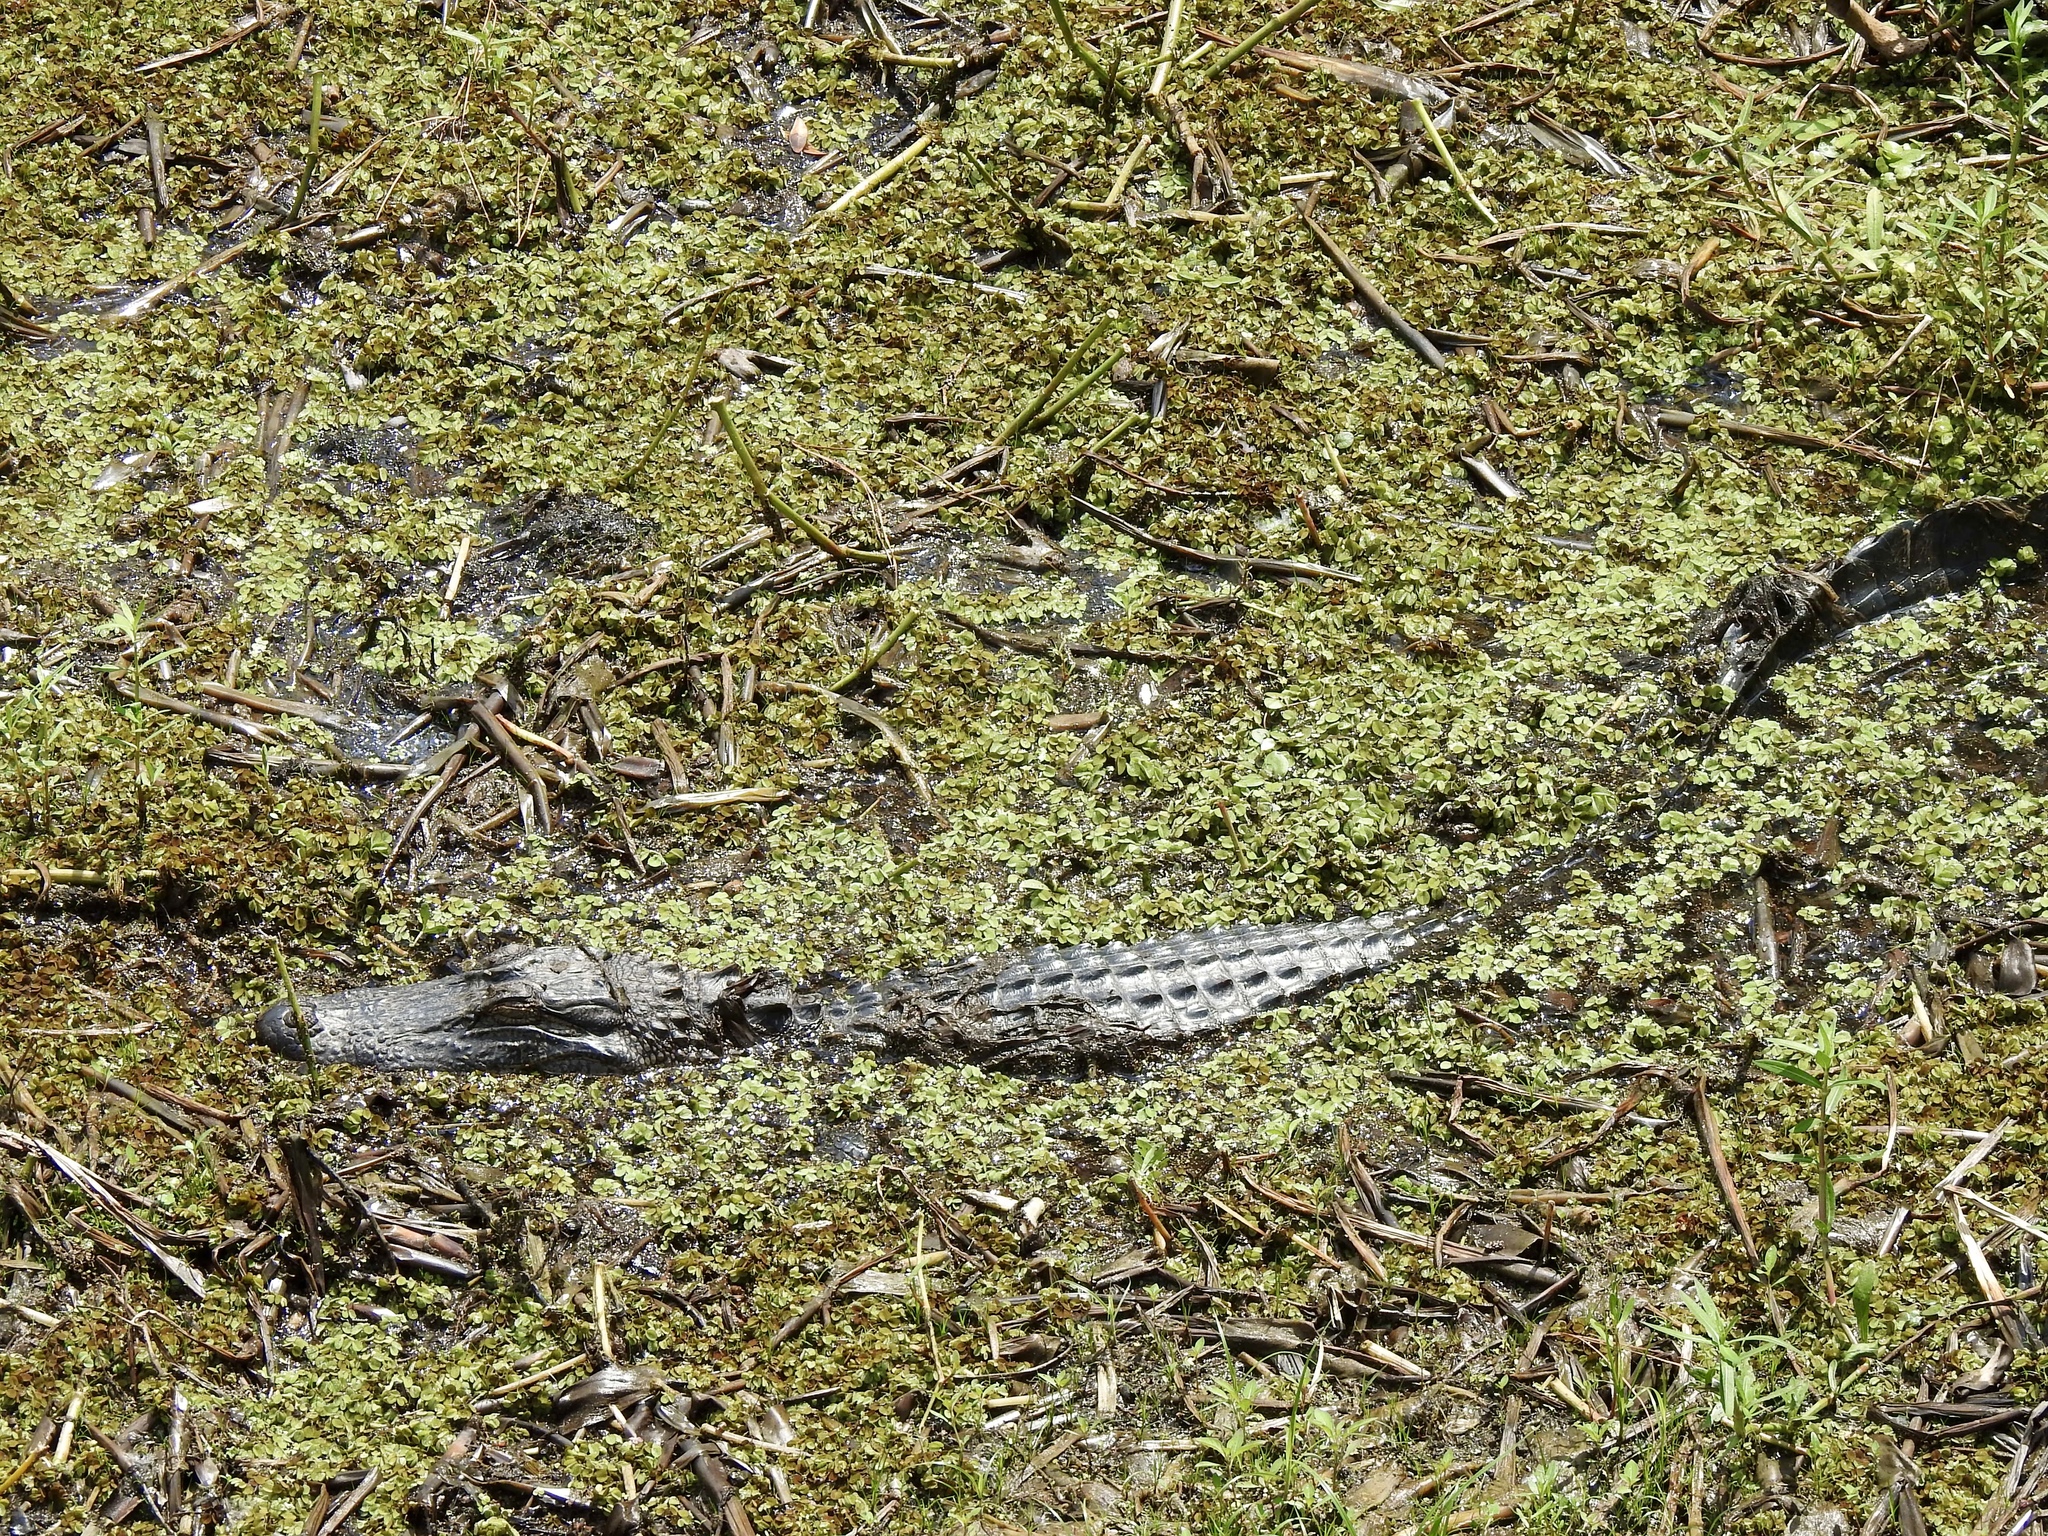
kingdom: Animalia
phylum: Chordata
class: Crocodylia
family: Alligatoridae
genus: Alligator
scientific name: Alligator mississippiensis
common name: American alligator
